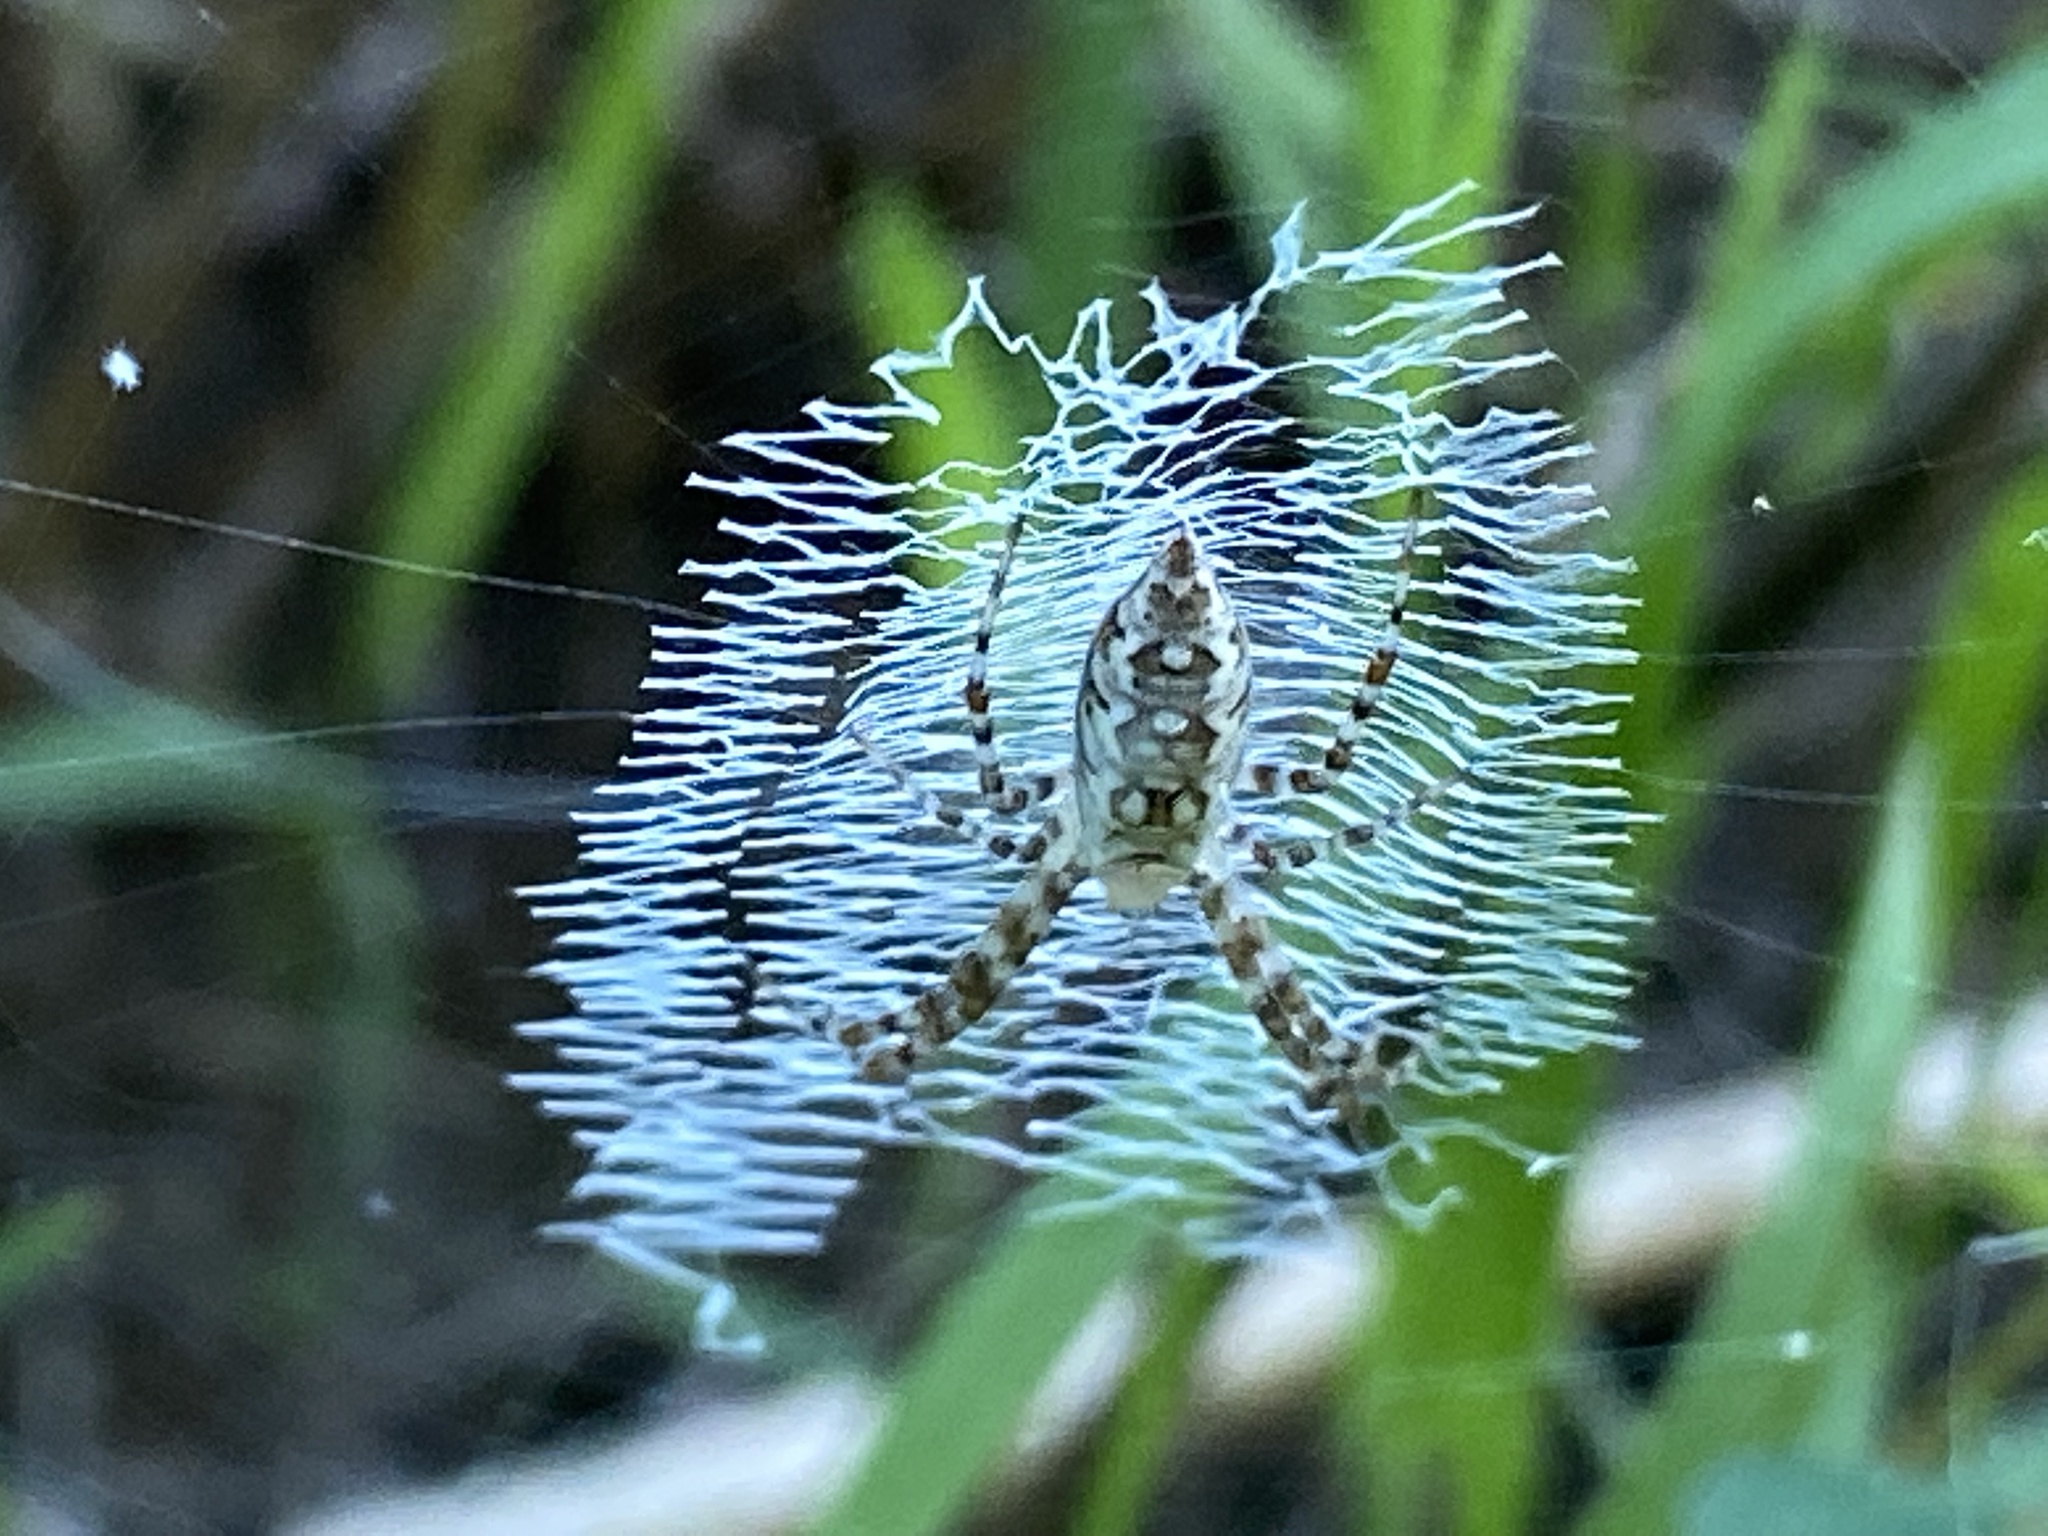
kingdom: Animalia
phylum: Arthropoda
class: Arachnida
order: Araneae
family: Araneidae
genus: Argiope
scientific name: Argiope aurantia
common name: Orb weavers
